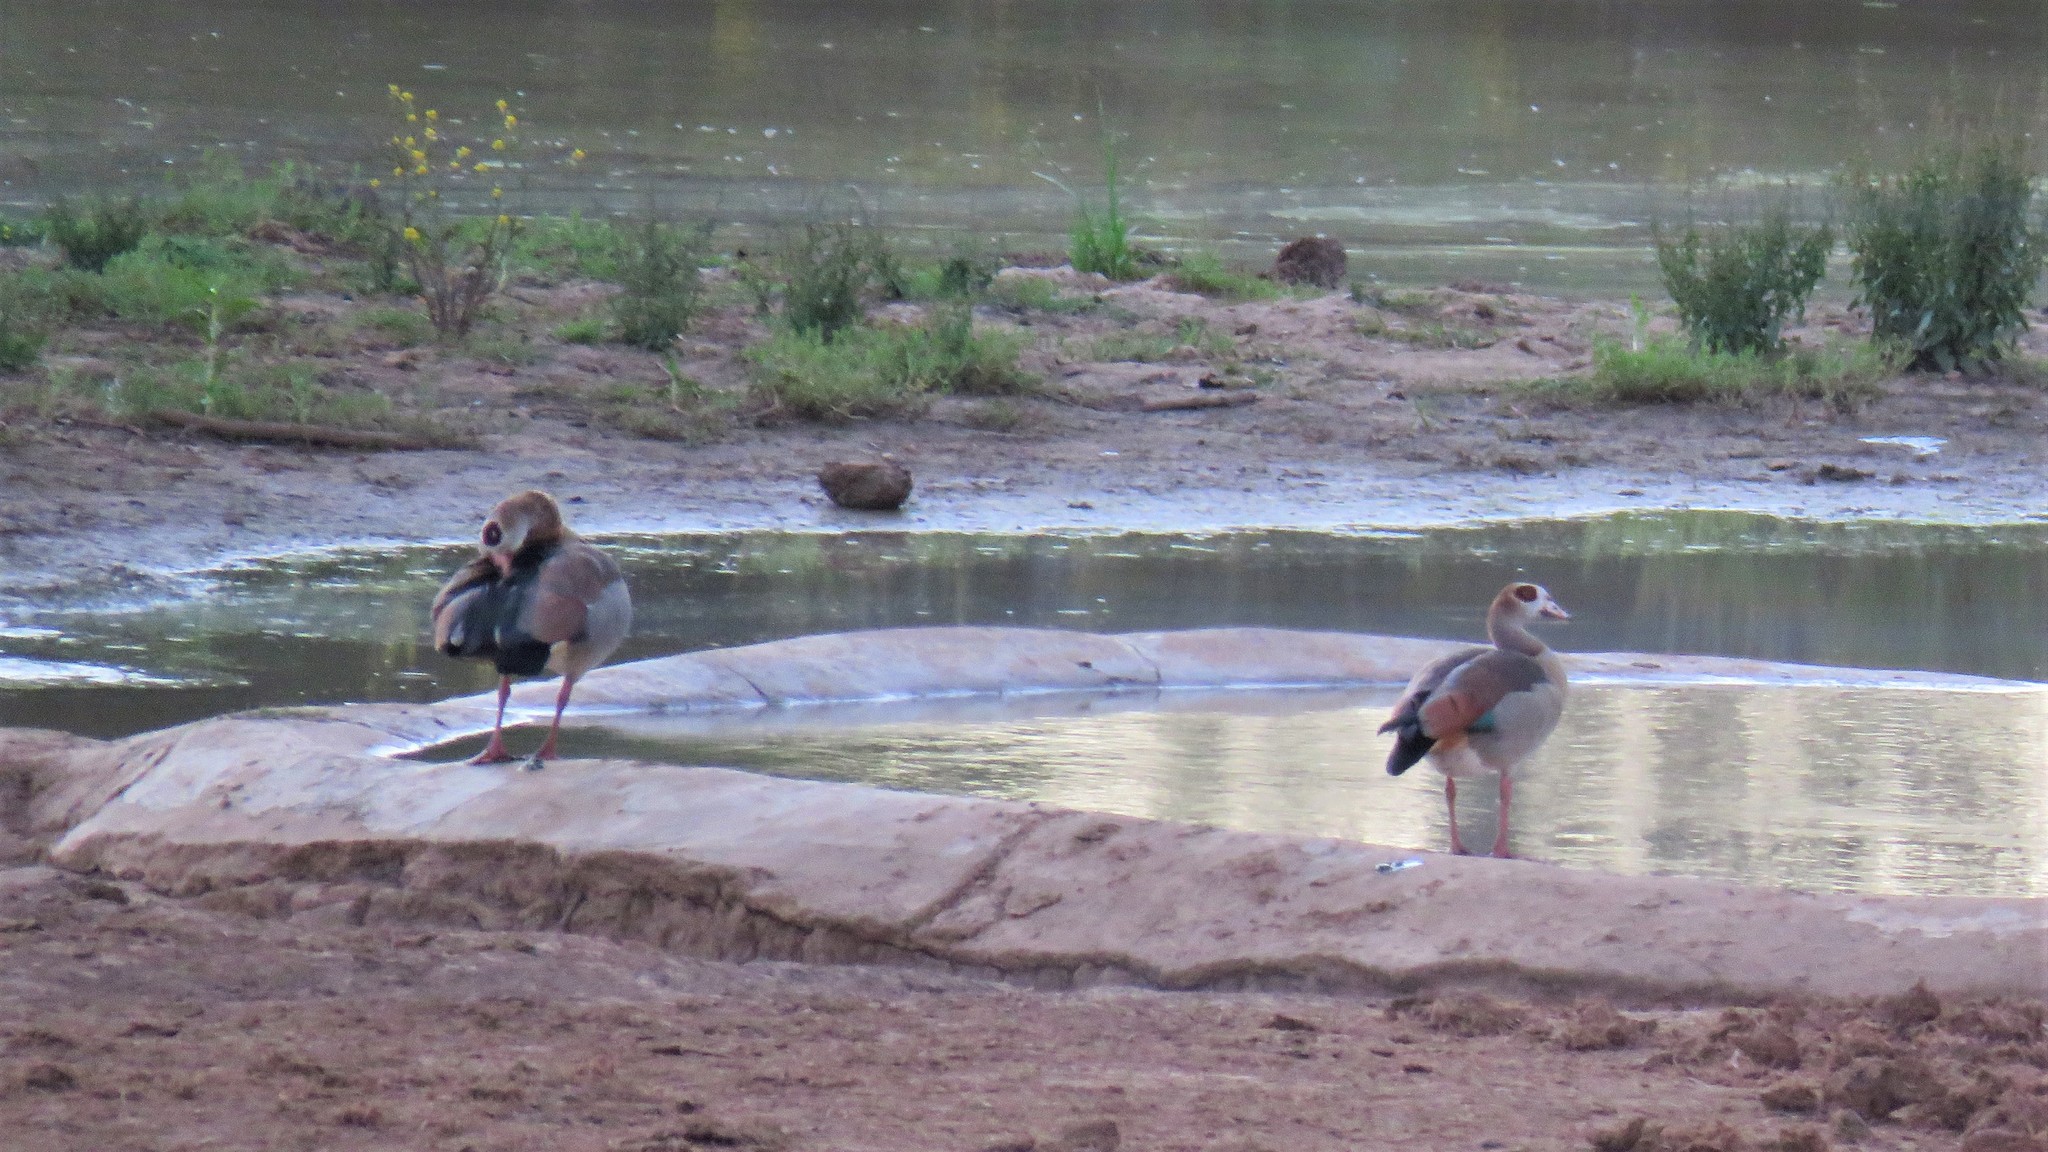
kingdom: Animalia
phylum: Chordata
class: Aves
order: Anseriformes
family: Anatidae
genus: Alopochen
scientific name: Alopochen aegyptiaca
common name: Egyptian goose
